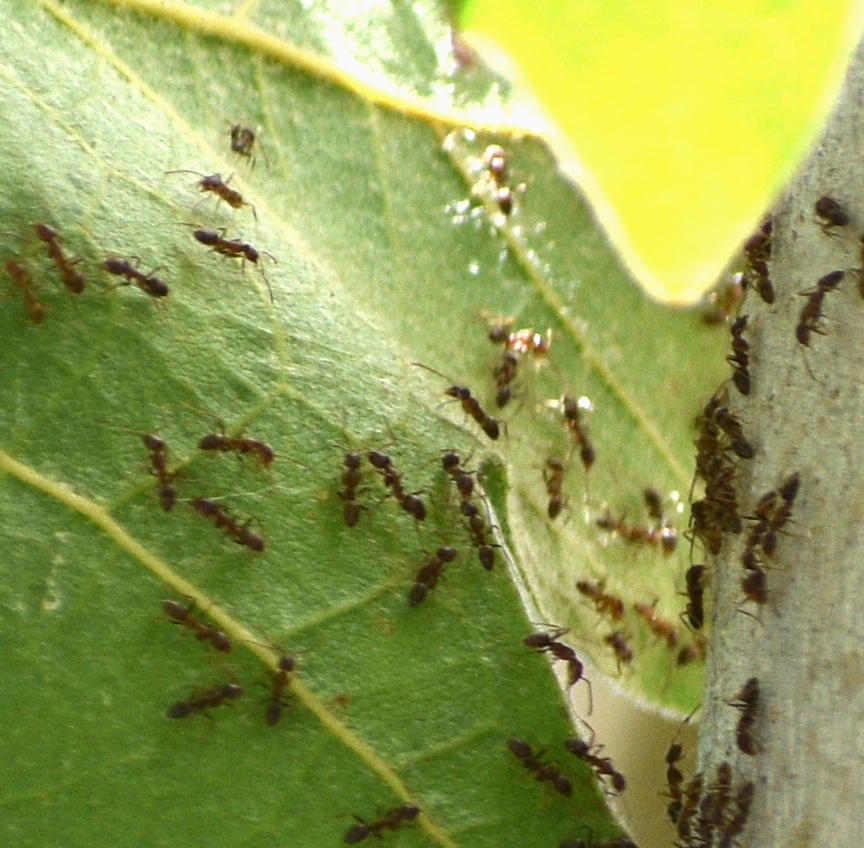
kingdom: Animalia
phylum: Arthropoda
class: Insecta
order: Hymenoptera
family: Formicidae
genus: Linepithema
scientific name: Linepithema humile
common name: Argentine ant
